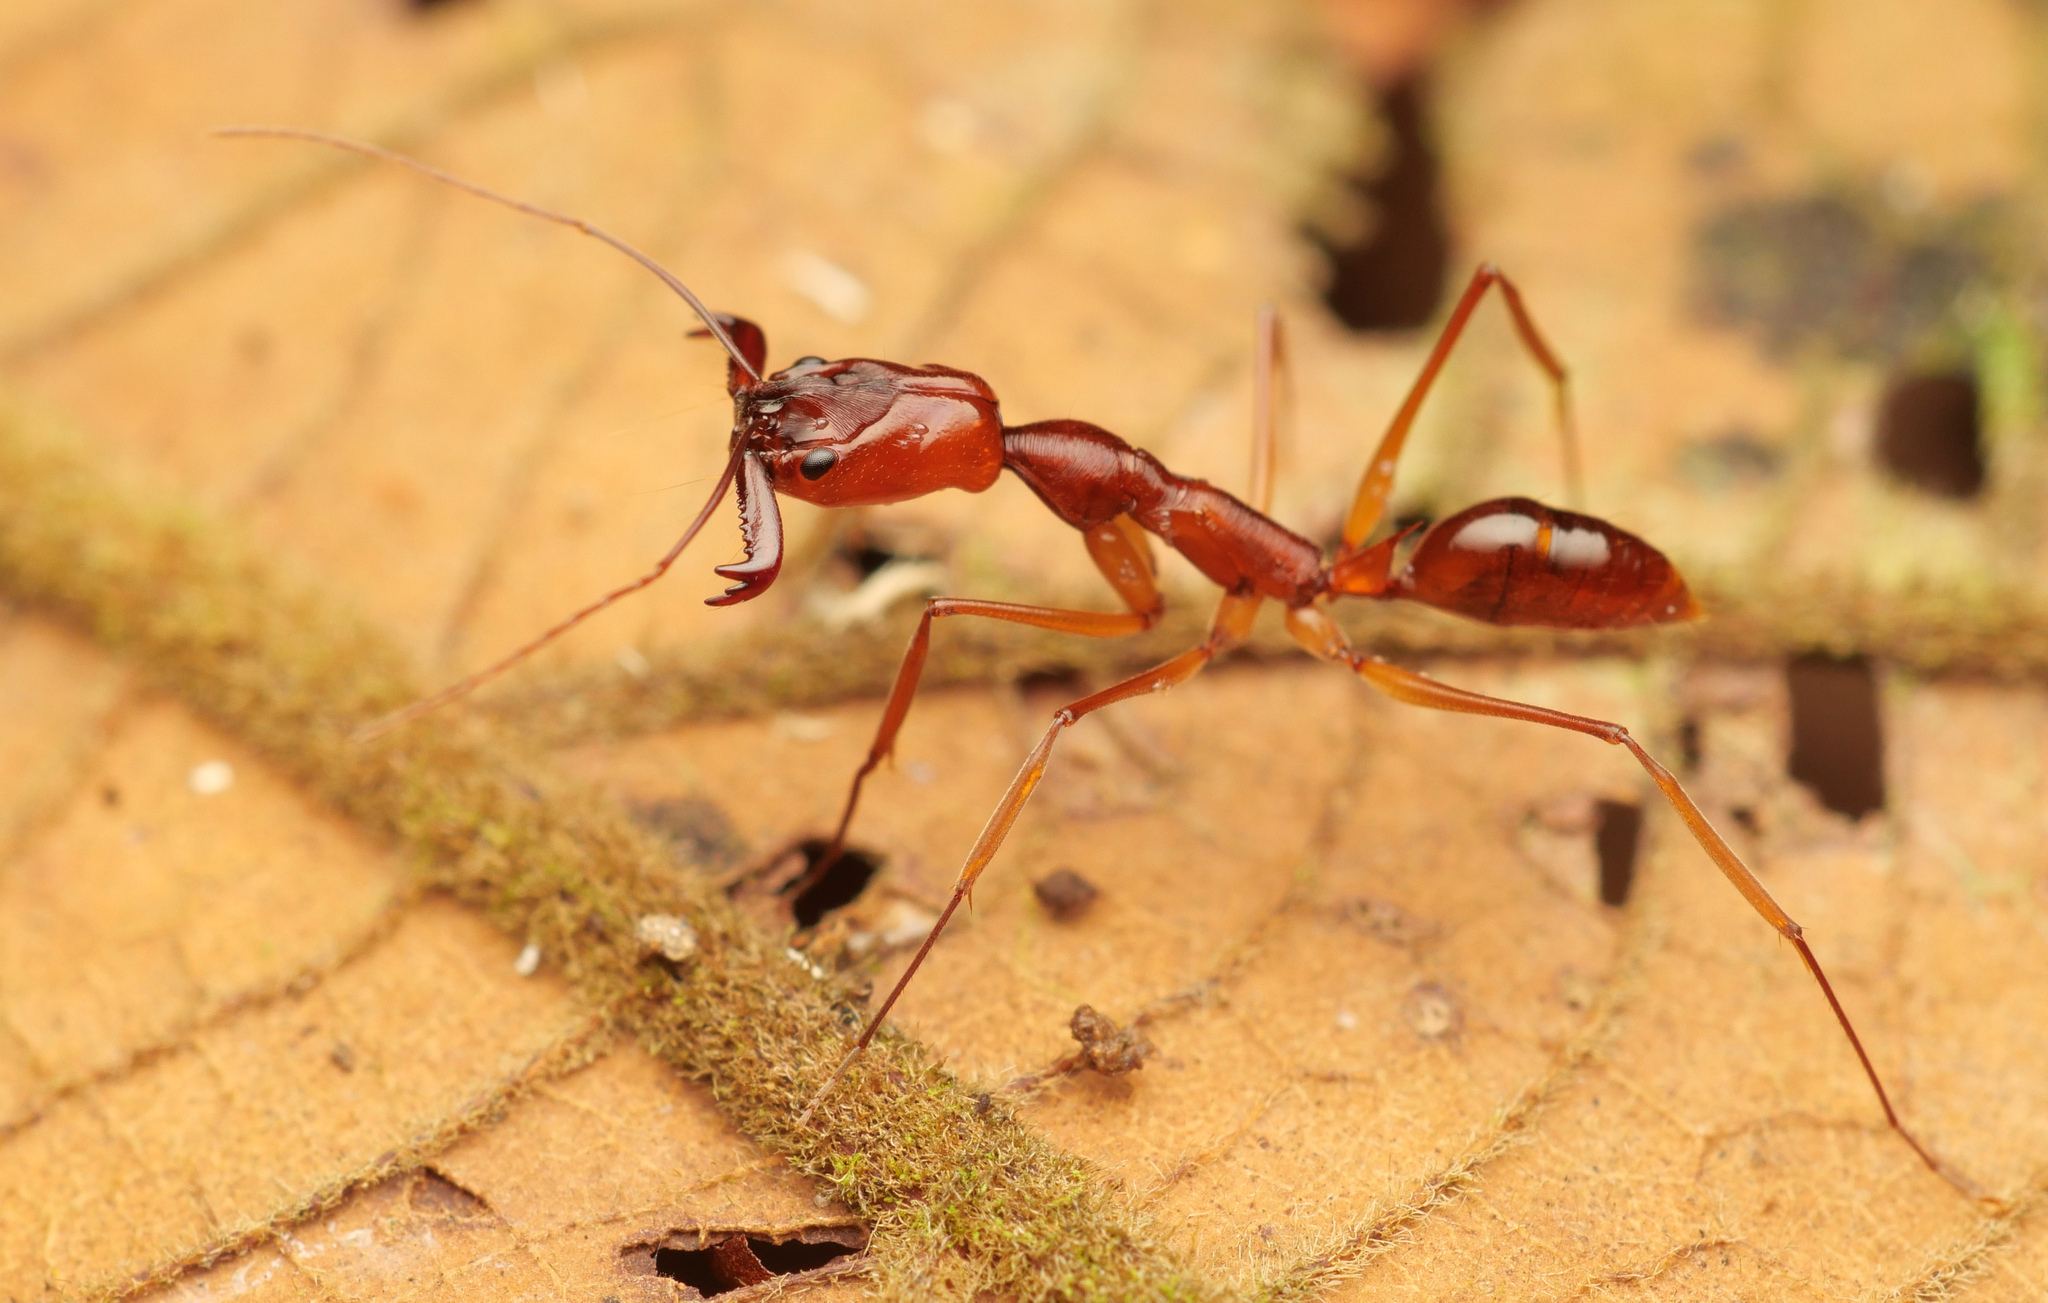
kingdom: Animalia
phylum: Arthropoda
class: Insecta
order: Hymenoptera
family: Formicidae
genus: Odontomachus
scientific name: Odontomachus papuanus
